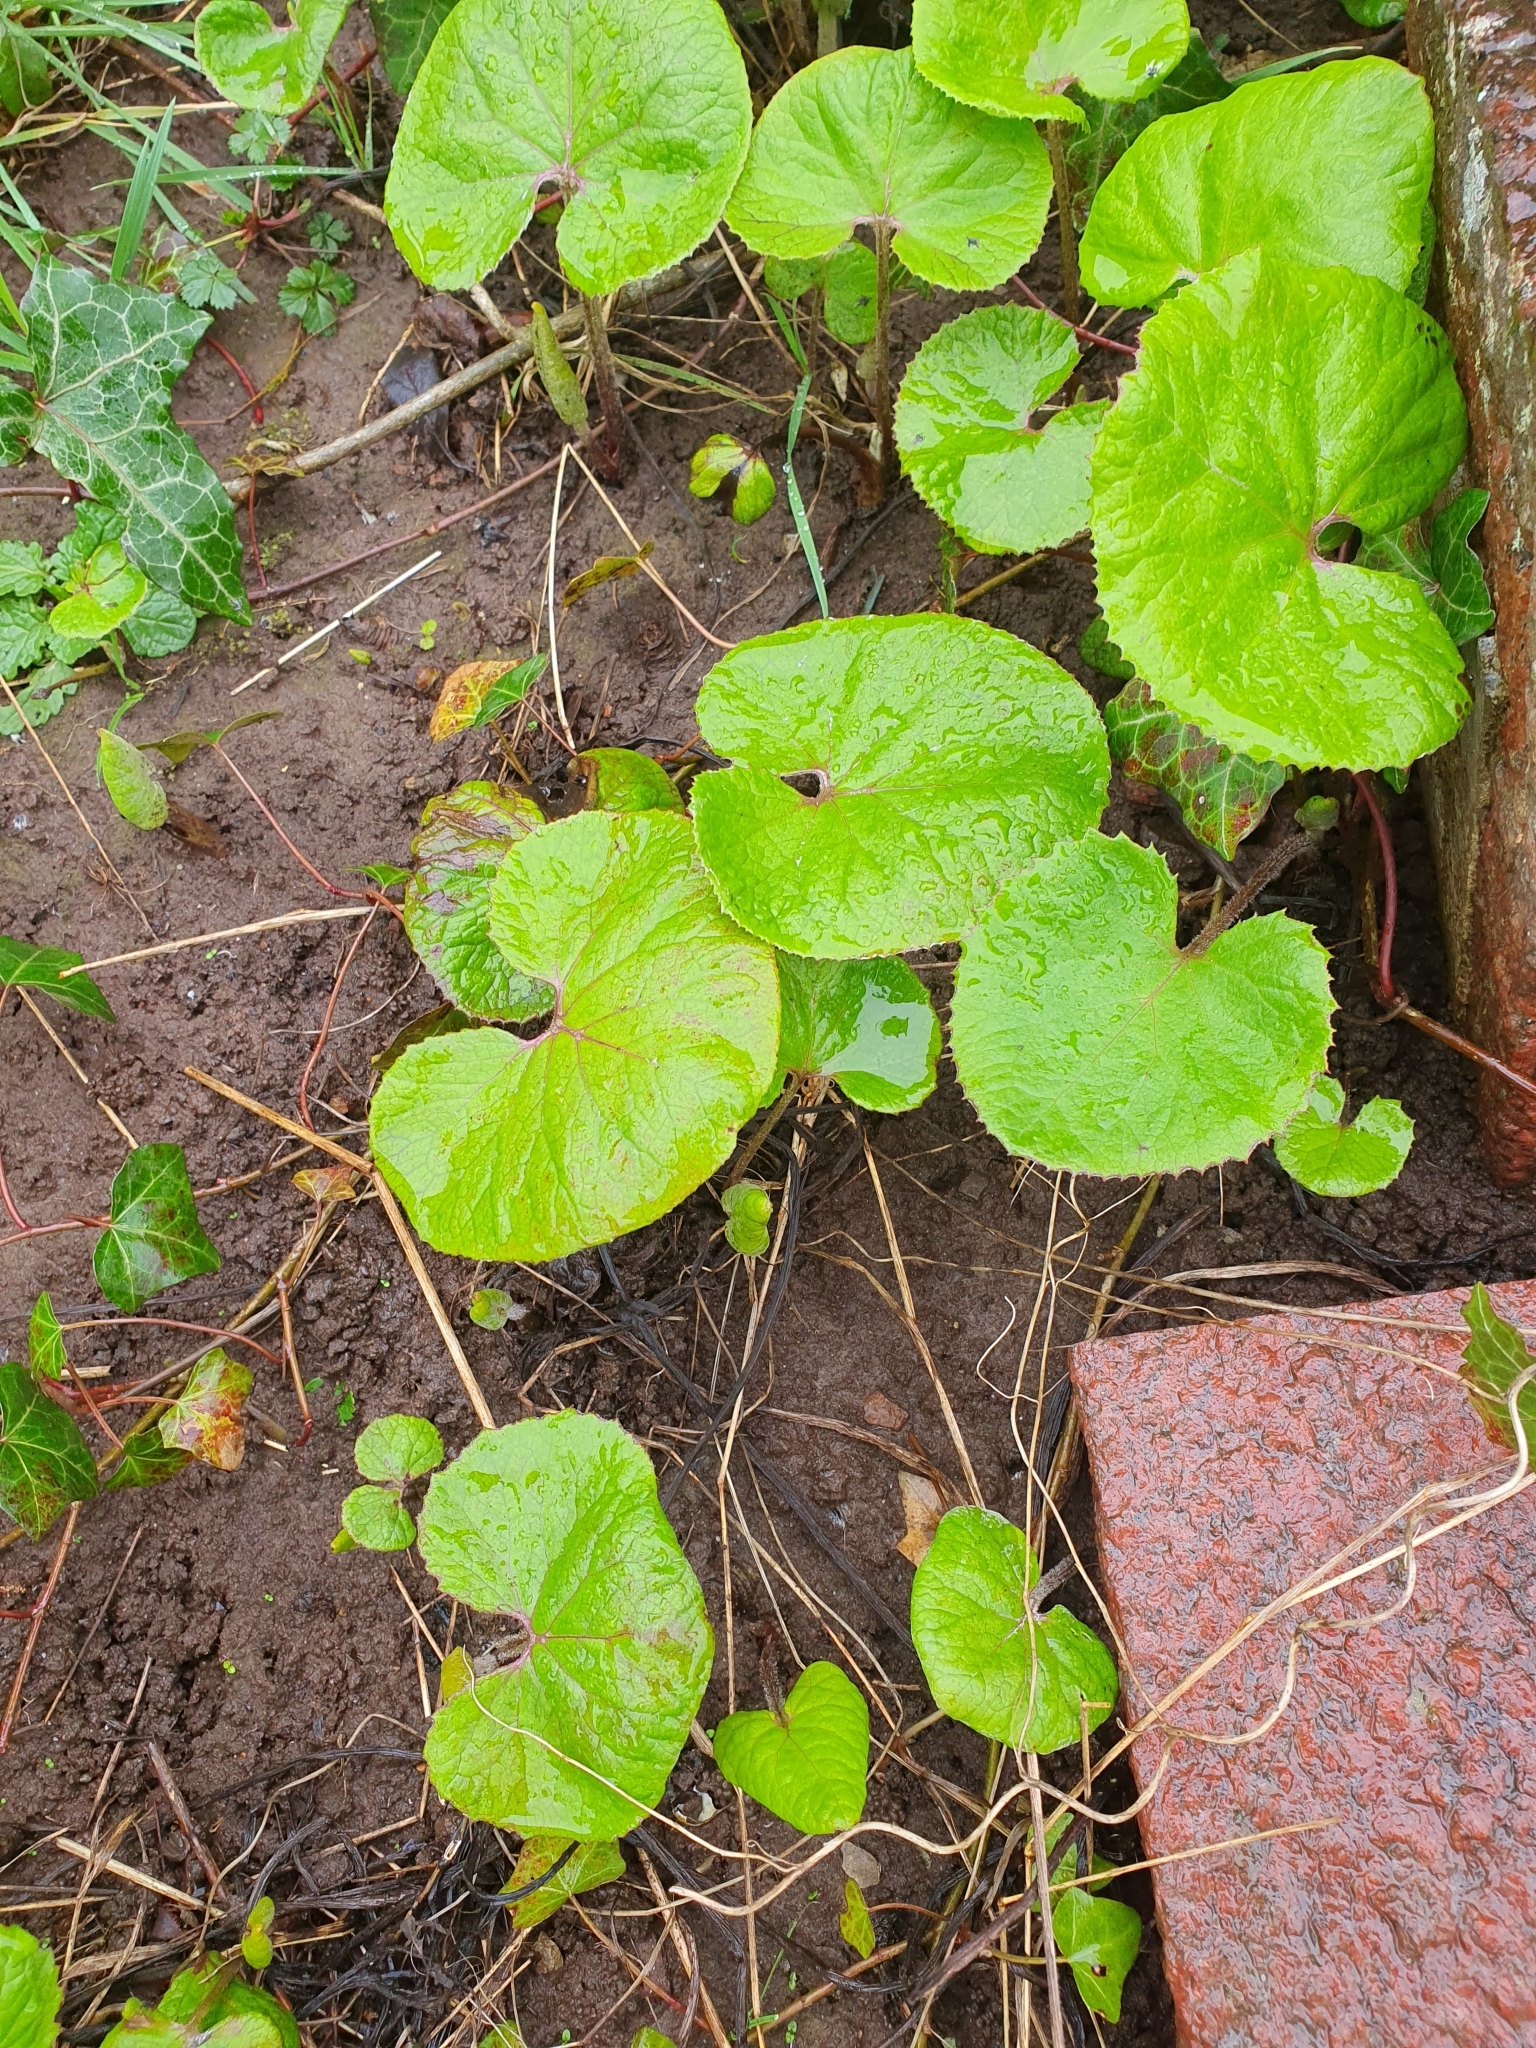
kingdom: Plantae
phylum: Tracheophyta
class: Magnoliopsida
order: Asterales
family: Asteraceae
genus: Petasites
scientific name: Petasites pyrenaicus
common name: Winter heliotrope
